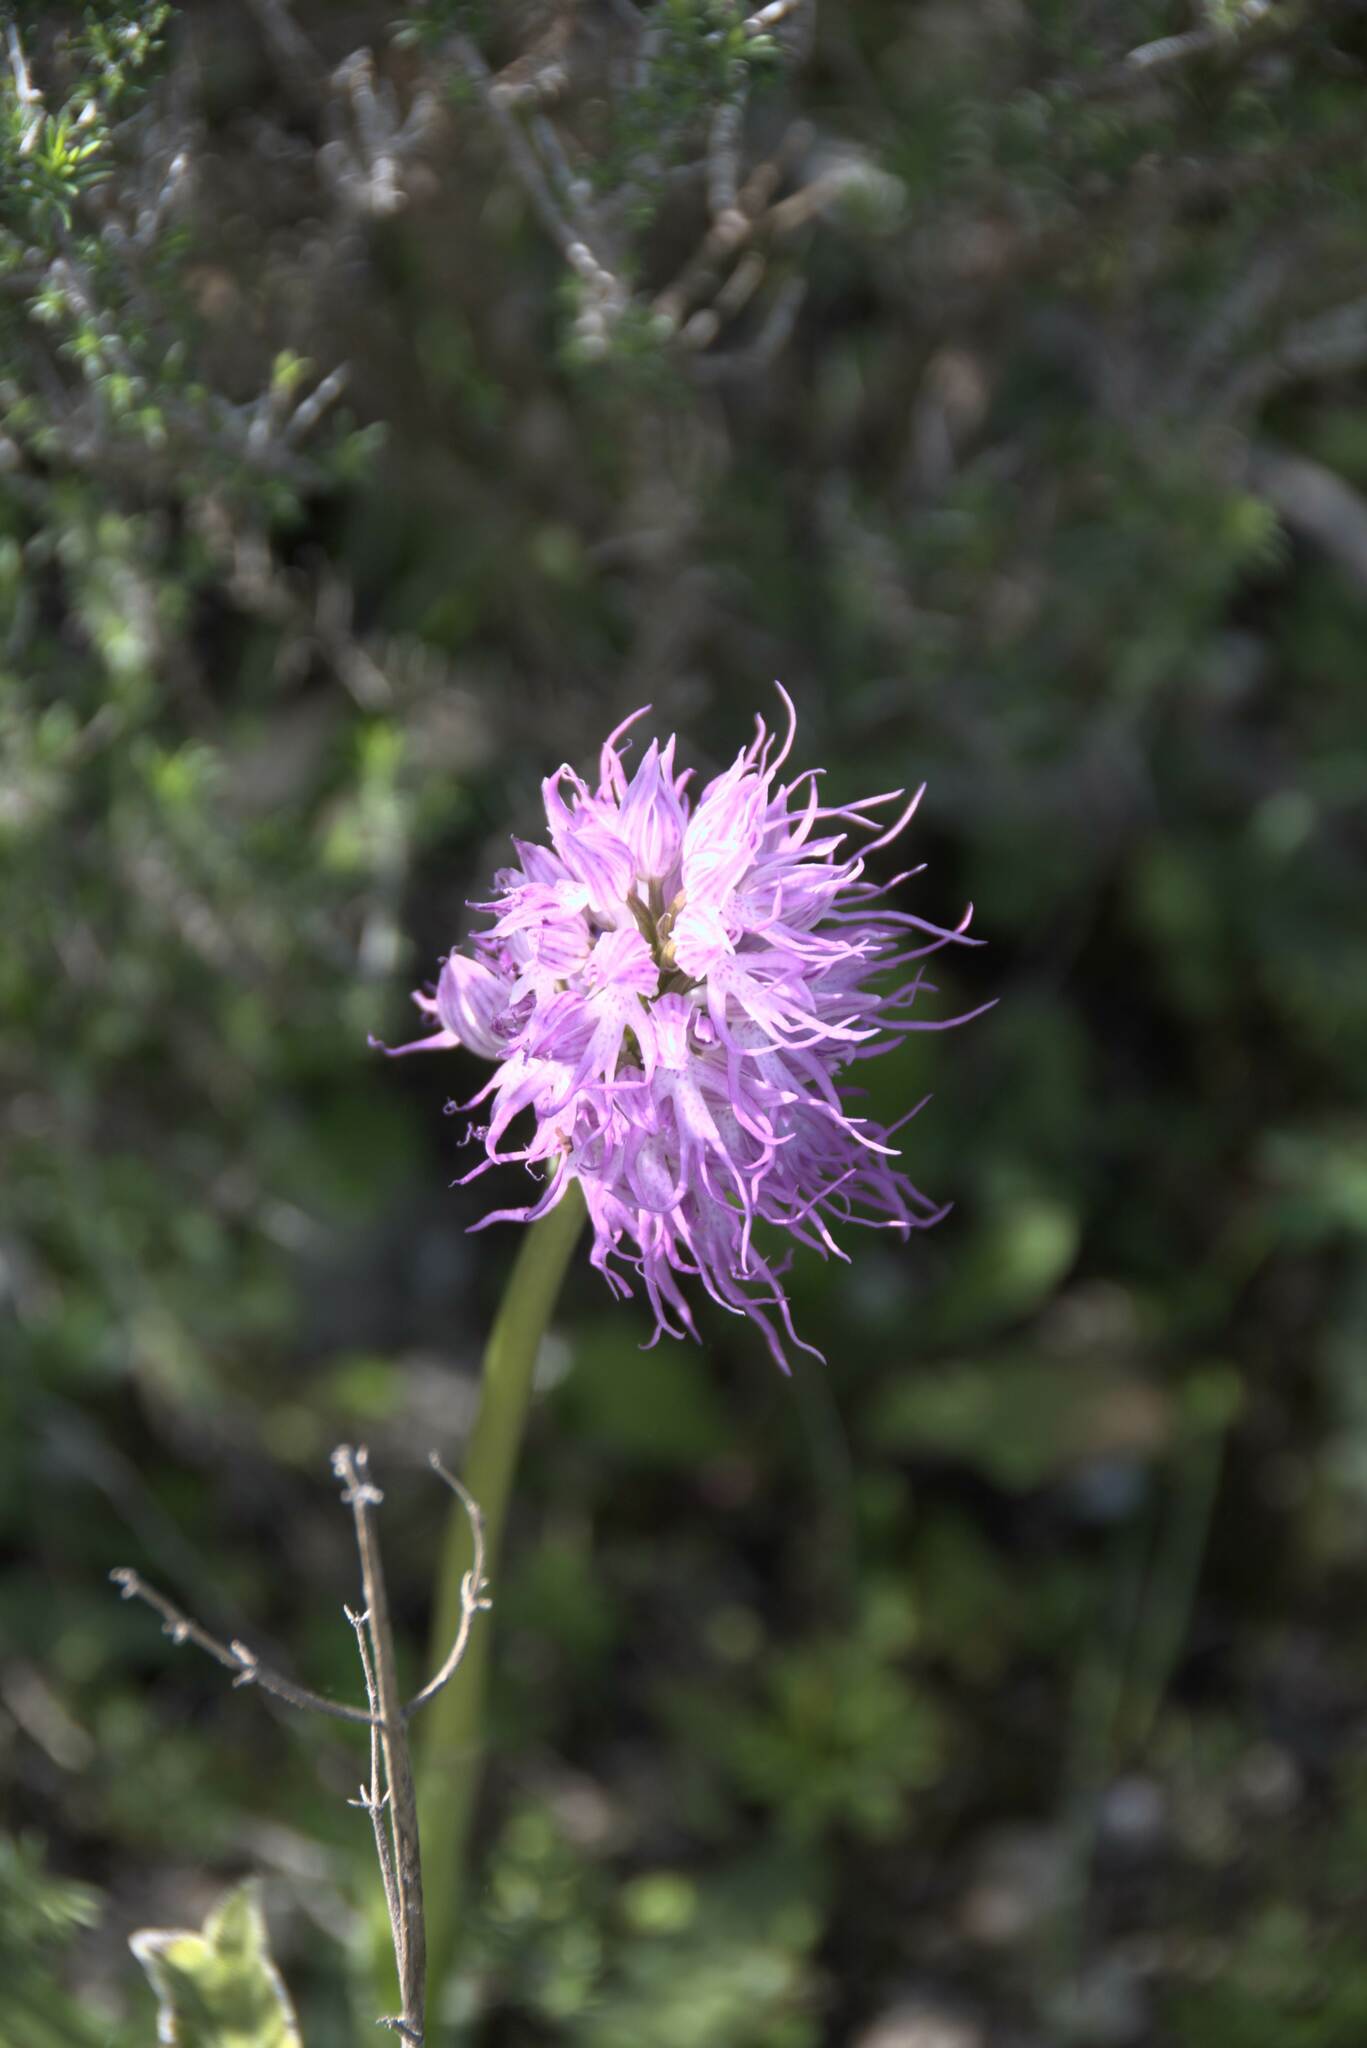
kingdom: Plantae
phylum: Tracheophyta
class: Liliopsida
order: Asparagales
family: Orchidaceae
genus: Orchis
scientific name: Orchis italica
